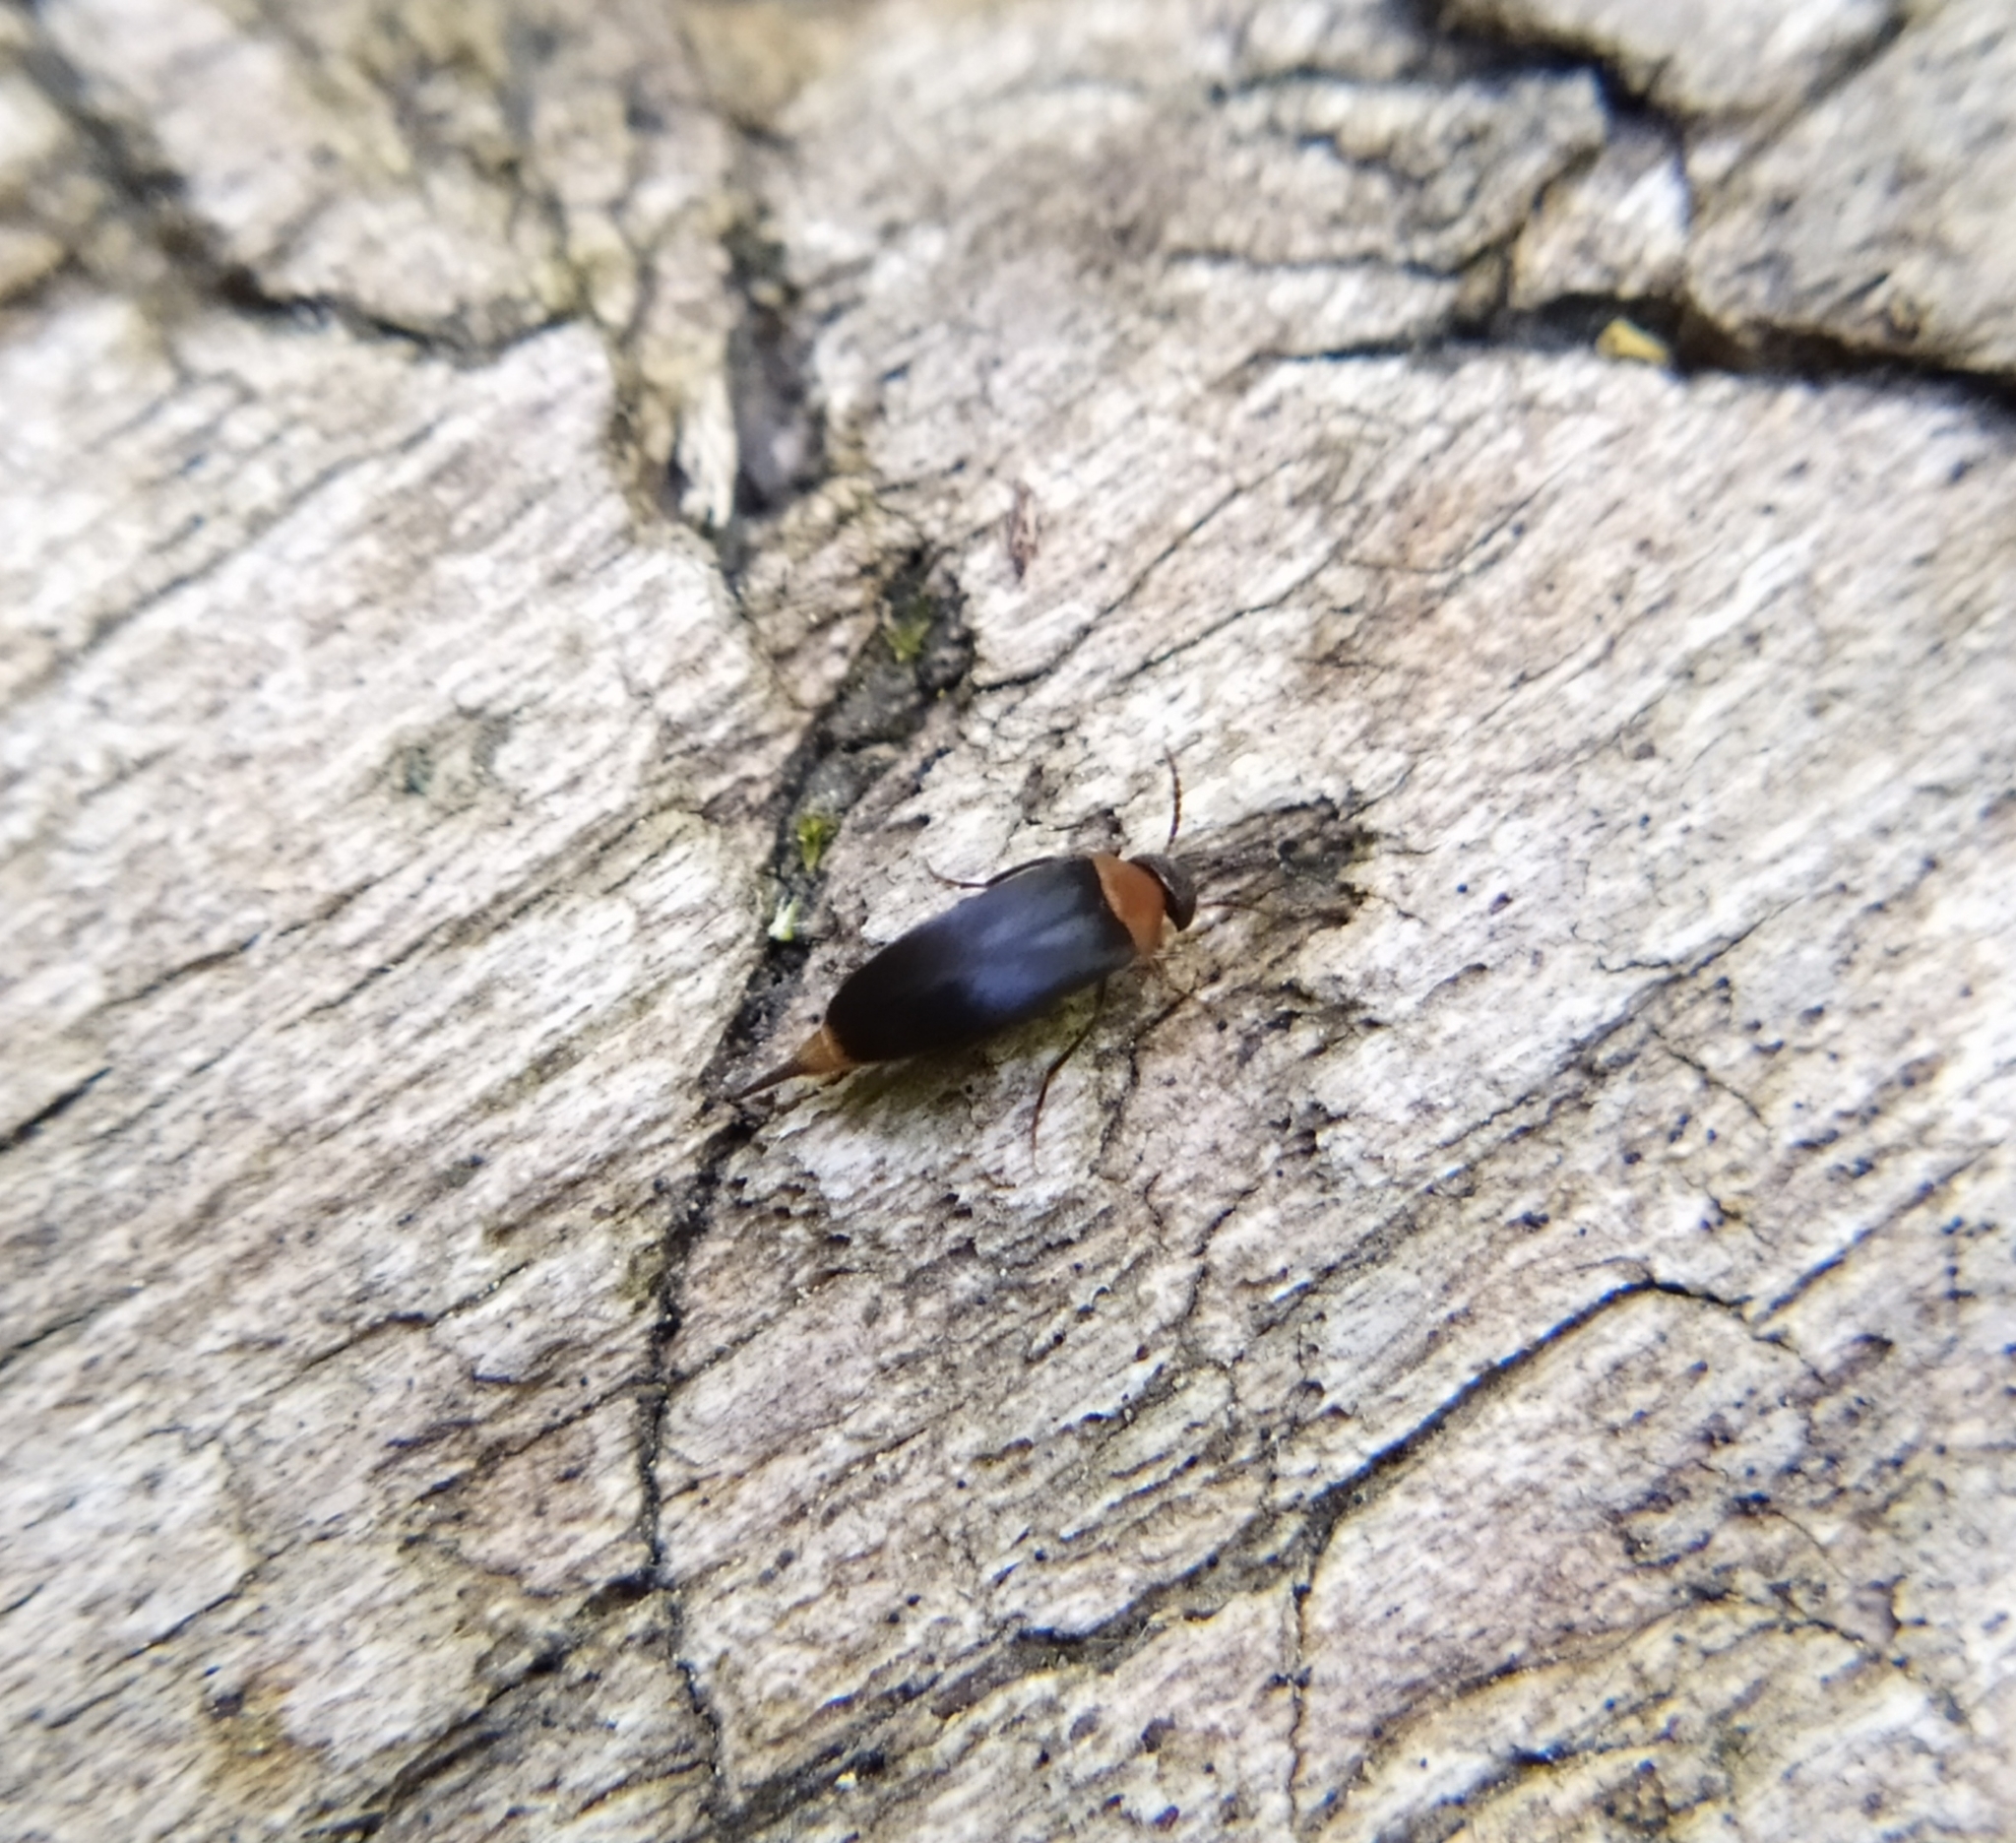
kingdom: Animalia
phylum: Arthropoda
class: Insecta
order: Coleoptera
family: Mordellidae
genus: Mordellochroa
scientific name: Mordellochroa abdominalis
